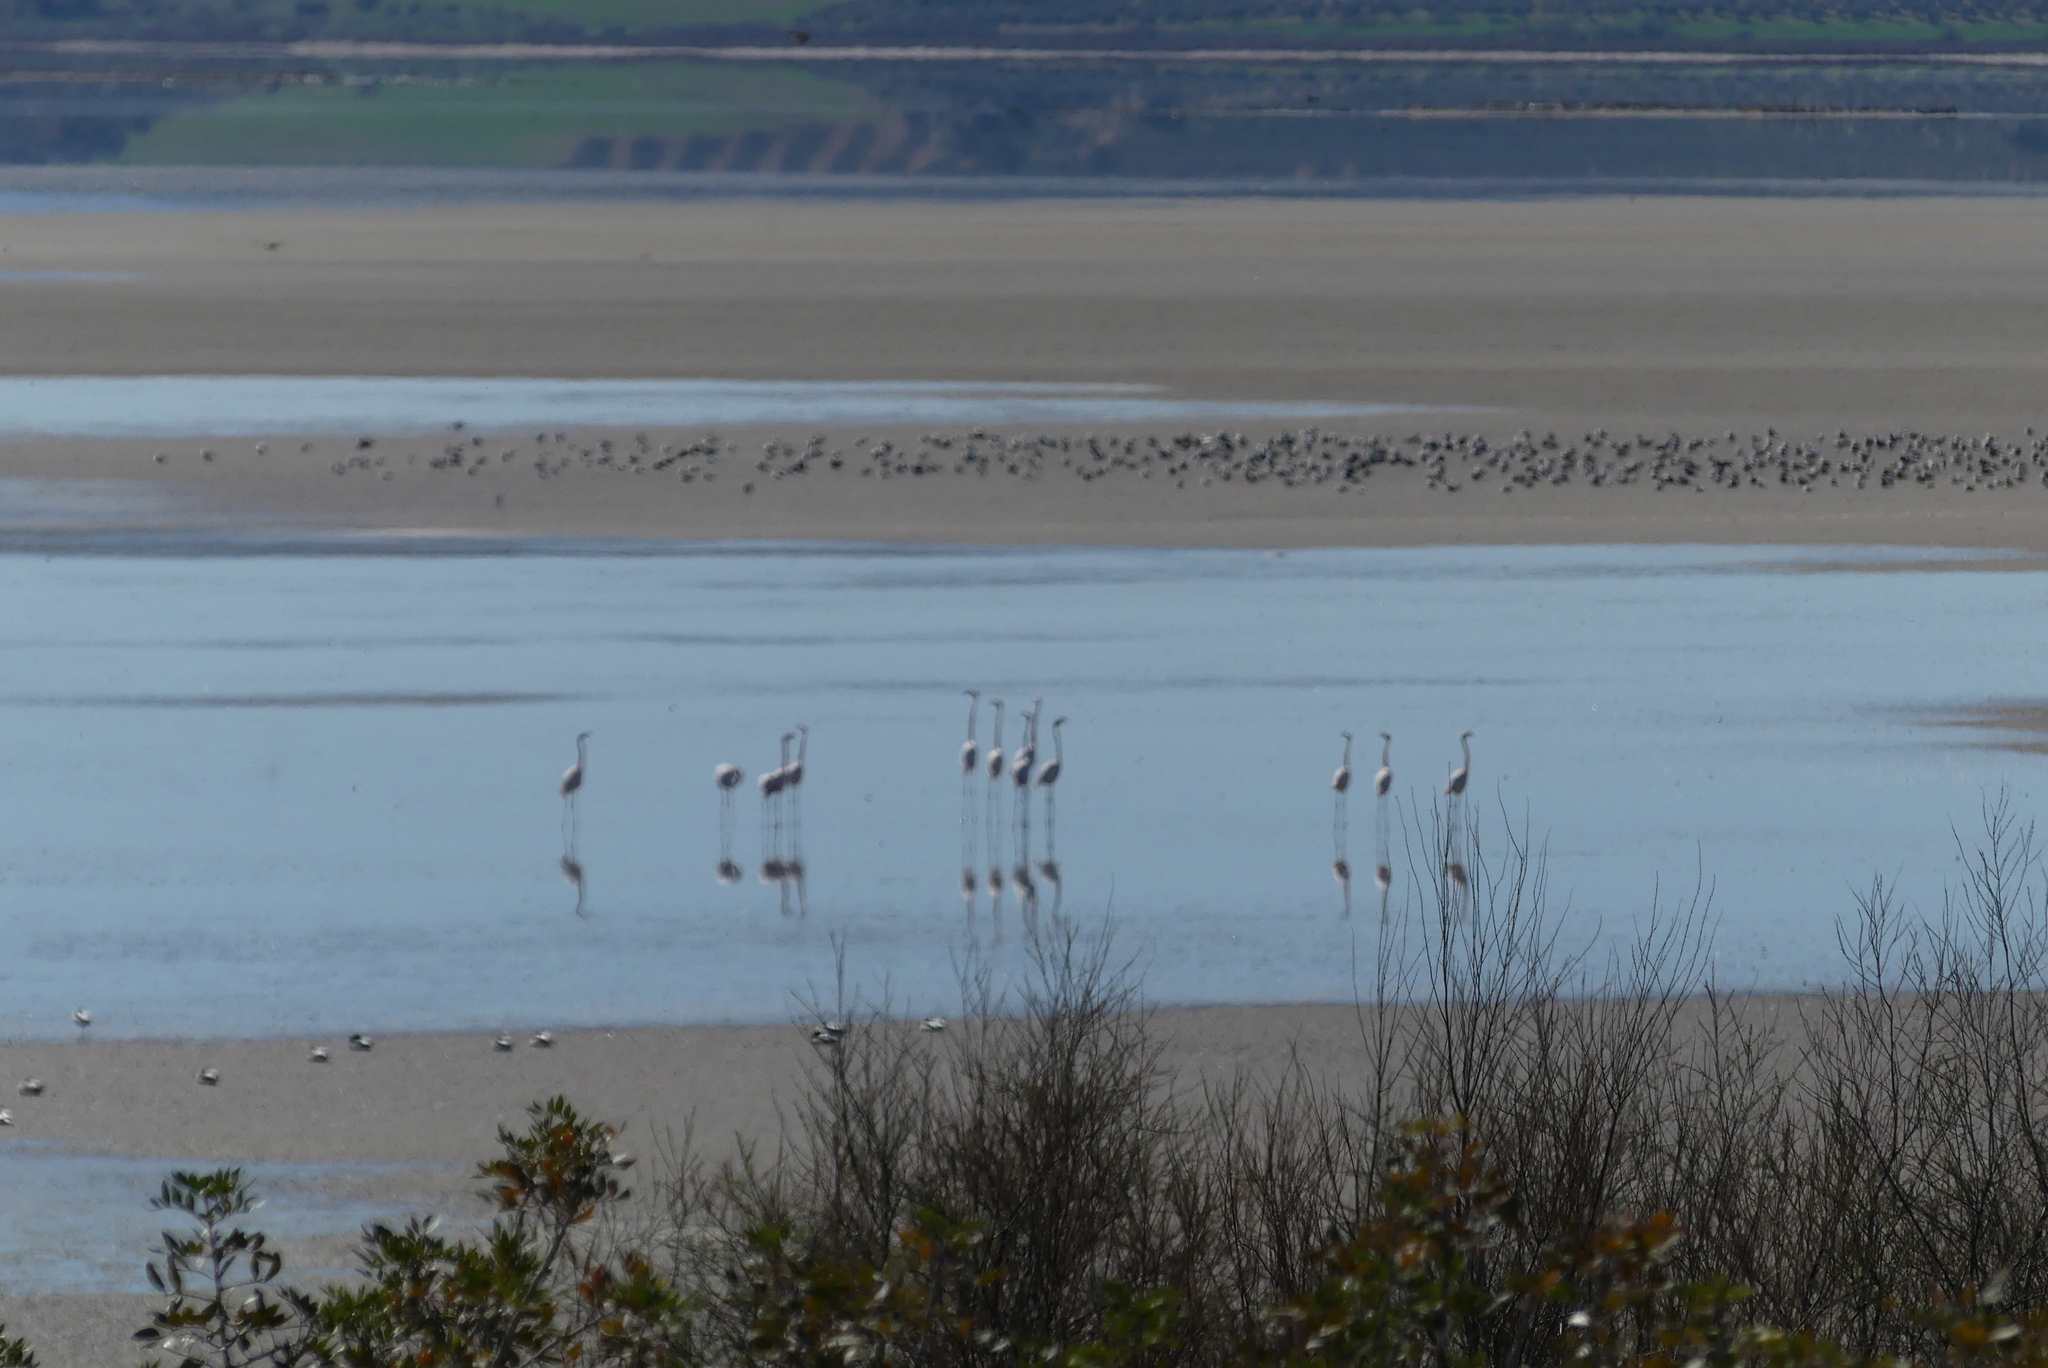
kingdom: Animalia
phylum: Chordata
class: Aves
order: Phoenicopteriformes
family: Phoenicopteridae
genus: Phoenicopterus
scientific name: Phoenicopterus roseus
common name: Greater flamingo
